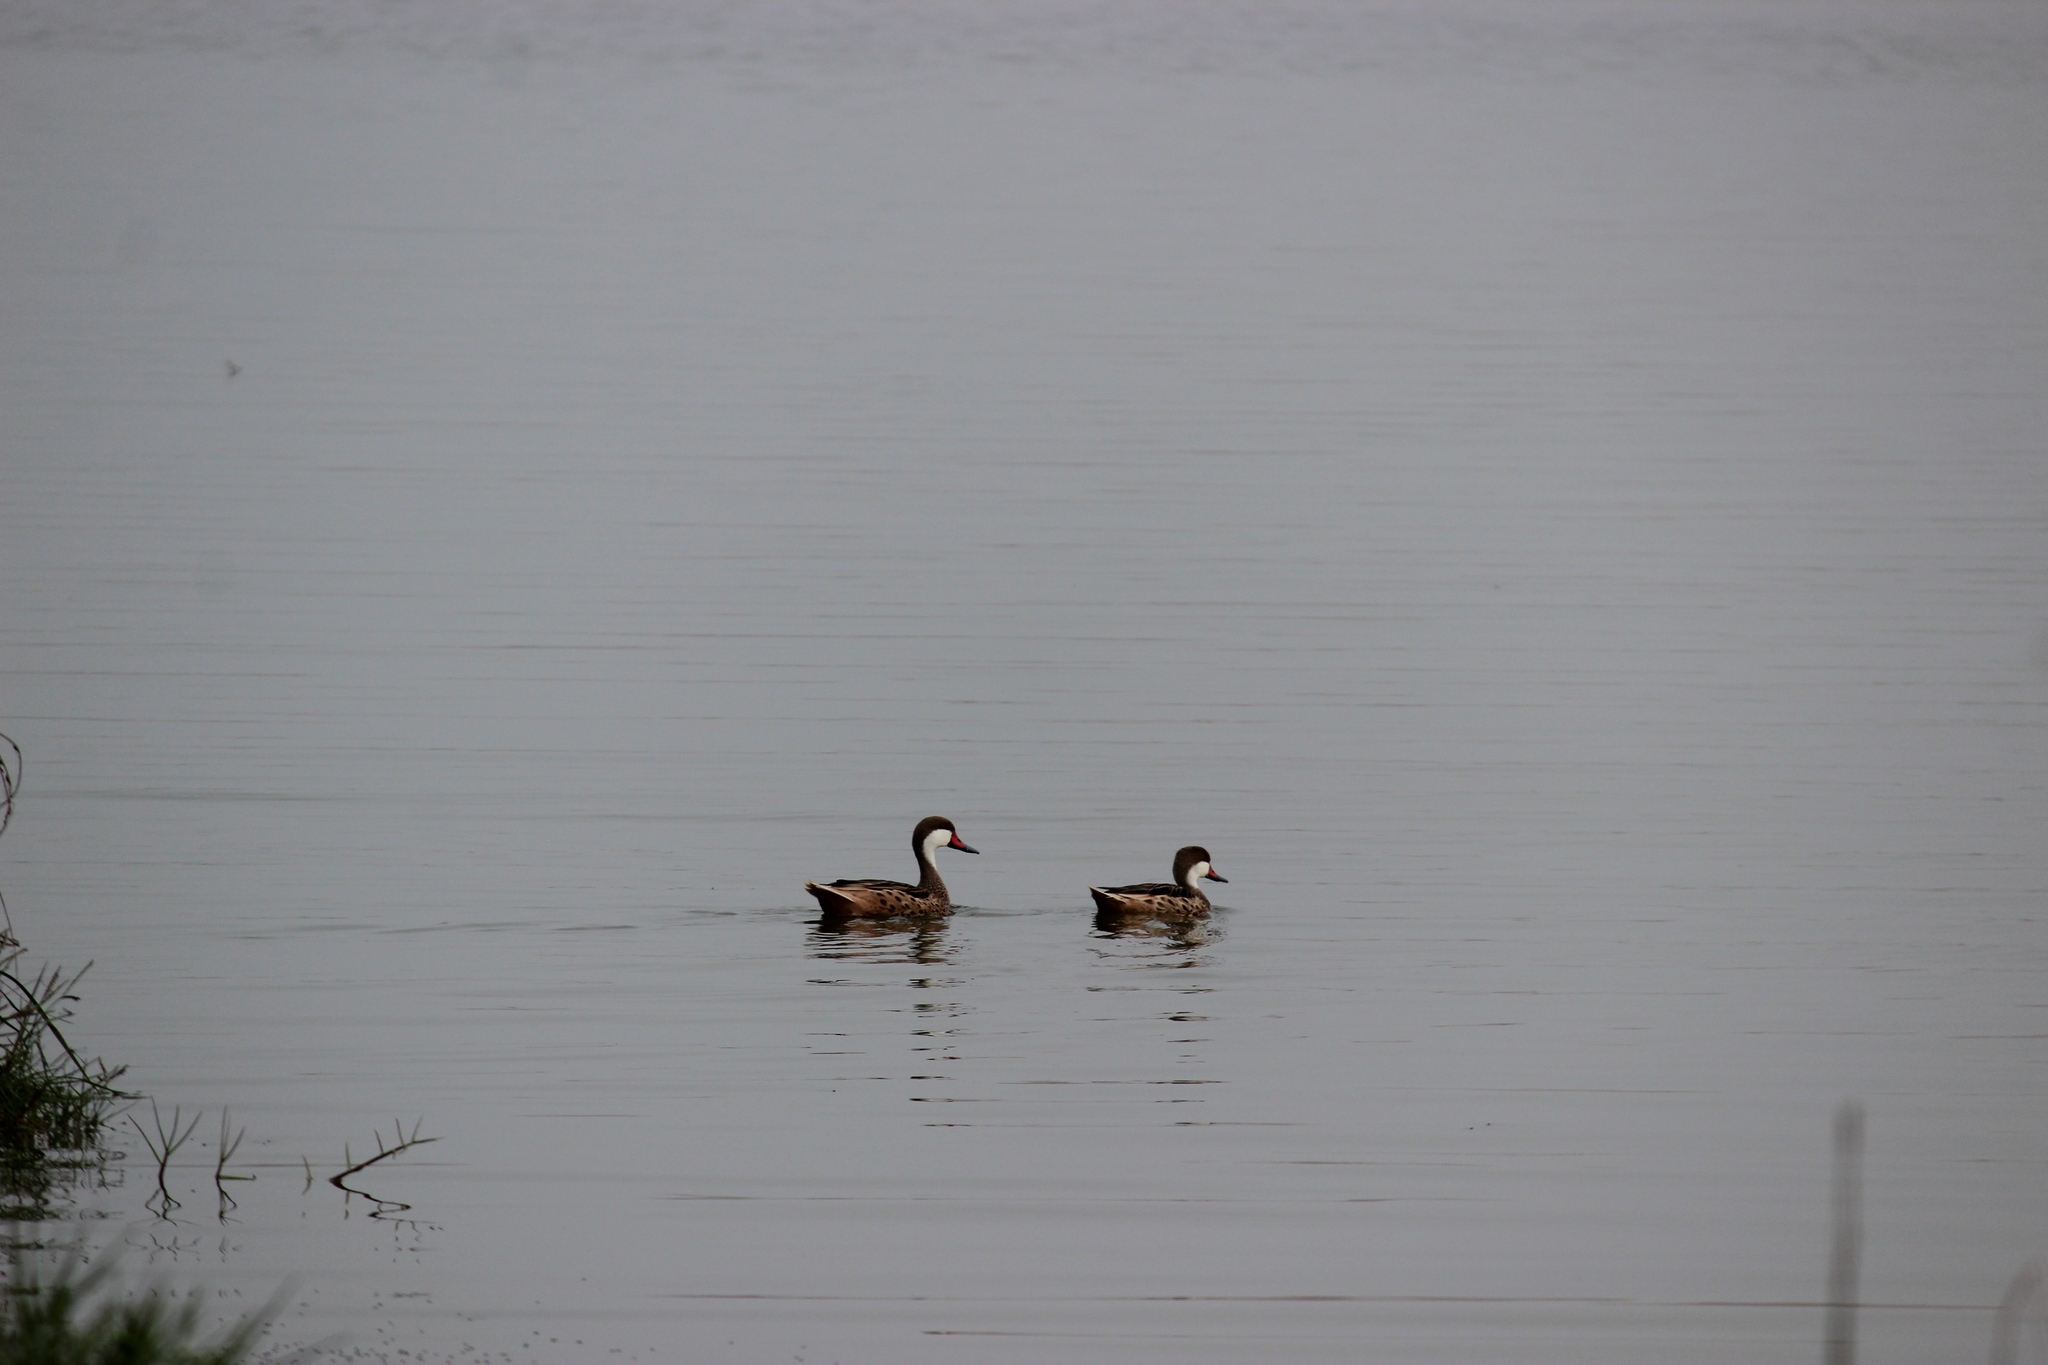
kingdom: Animalia
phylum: Chordata
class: Aves
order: Anseriformes
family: Anatidae
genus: Anas
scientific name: Anas bahamensis
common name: White-cheeked pintail
